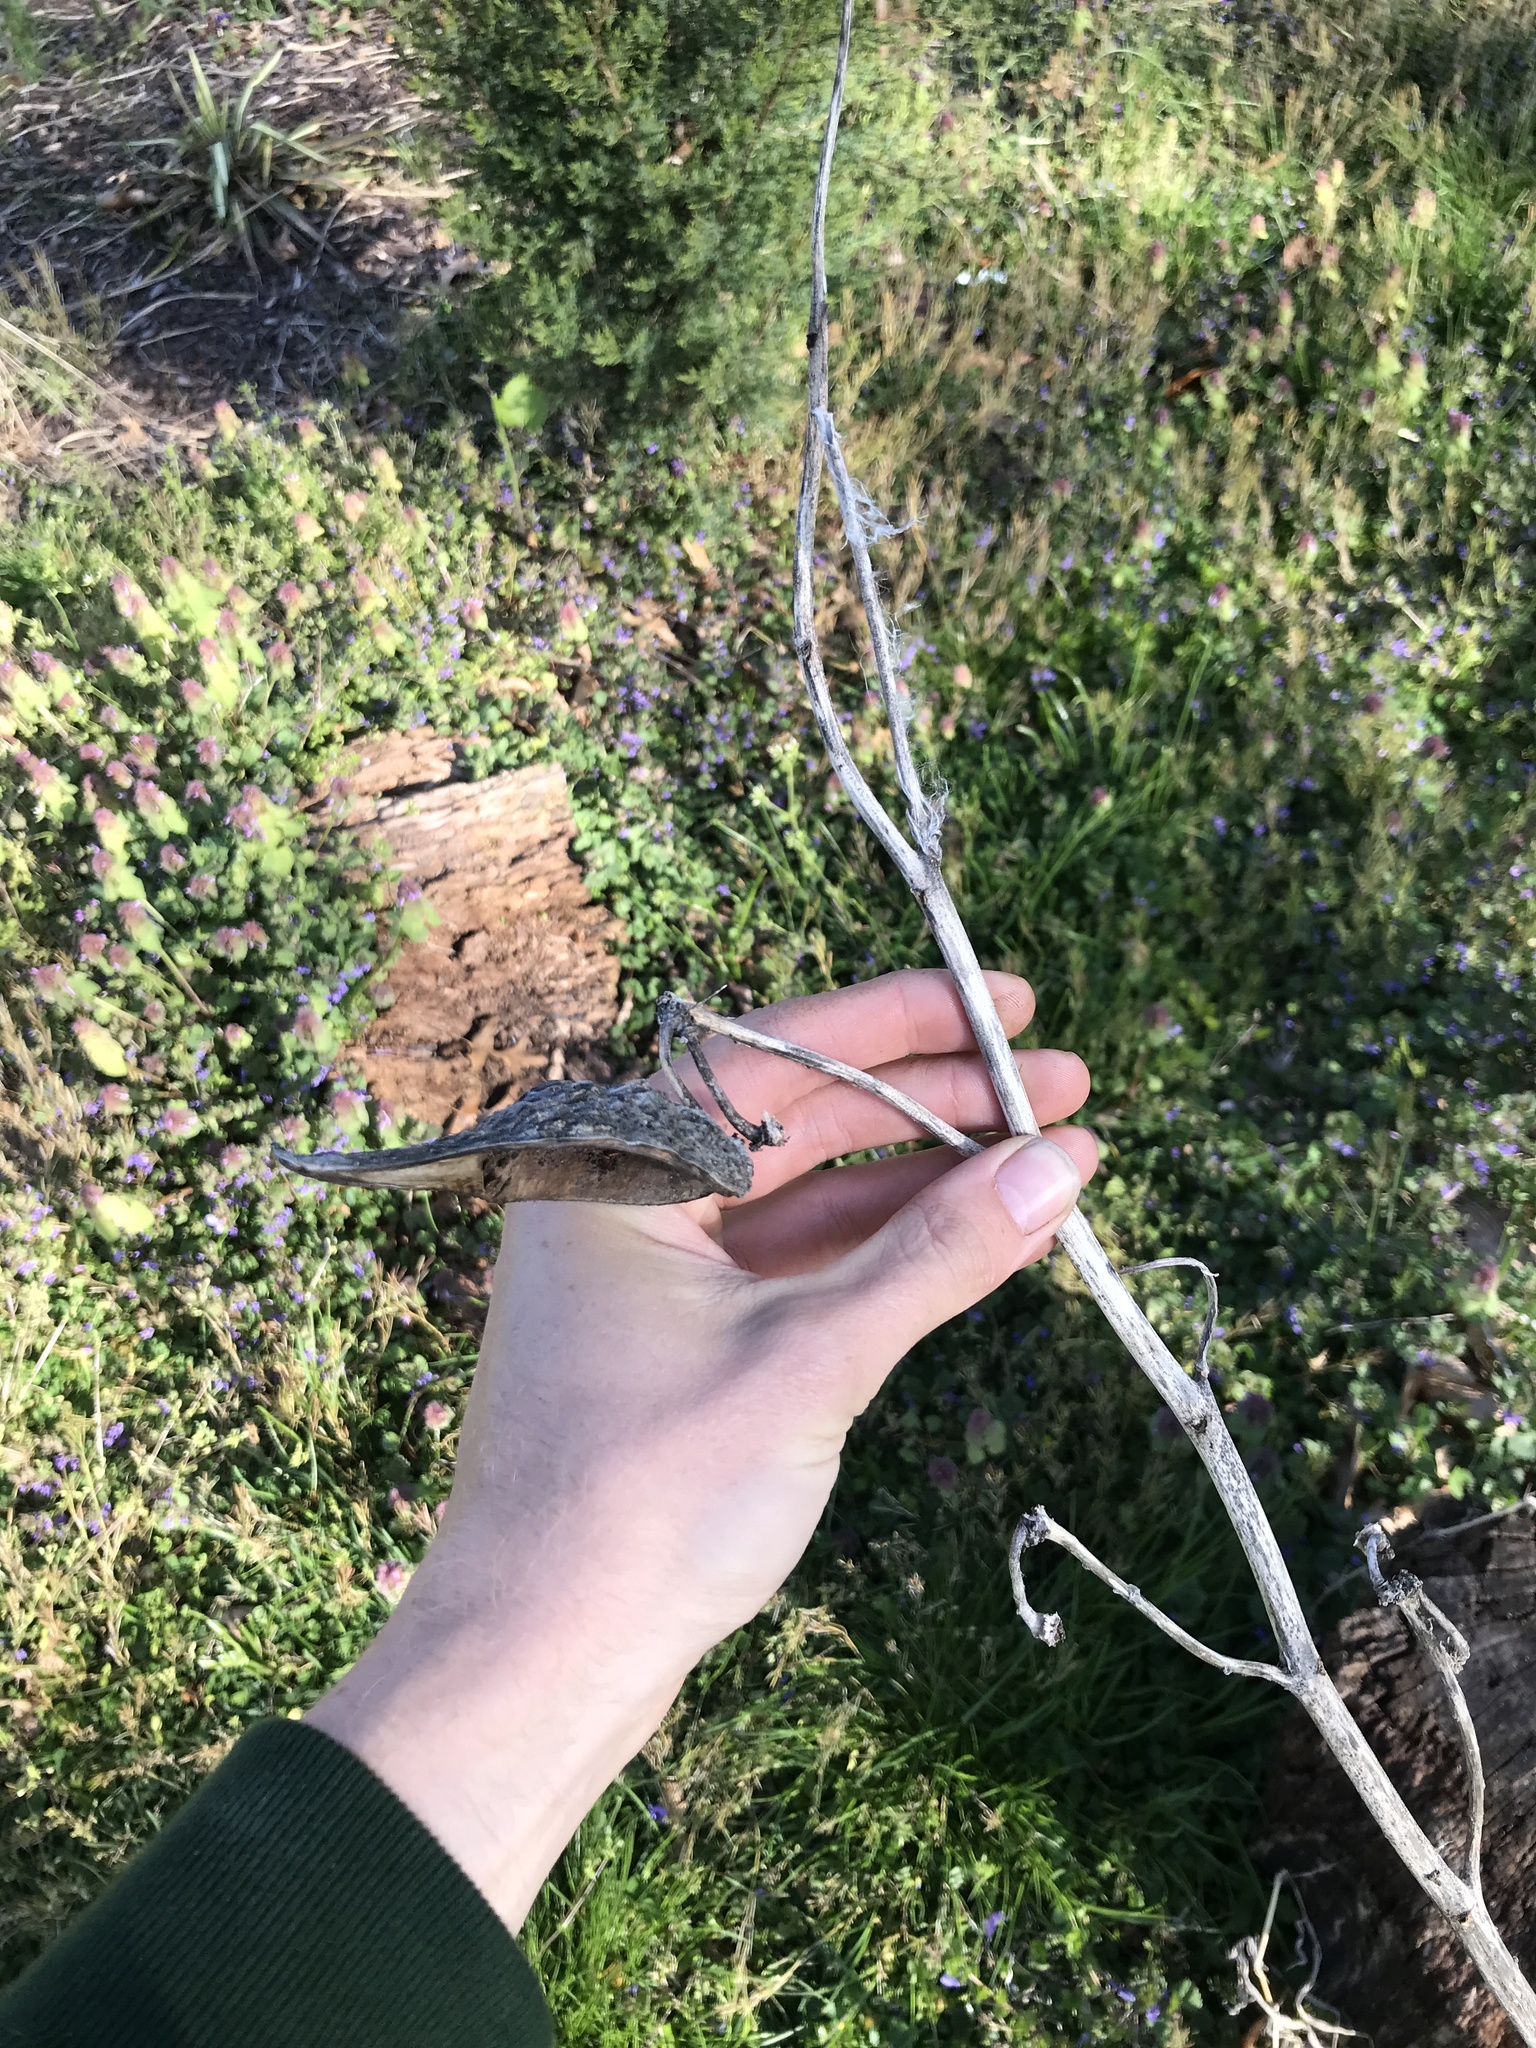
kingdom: Plantae
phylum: Tracheophyta
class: Magnoliopsida
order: Gentianales
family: Apocynaceae
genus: Asclepias
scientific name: Asclepias syriaca
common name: Common milkweed
